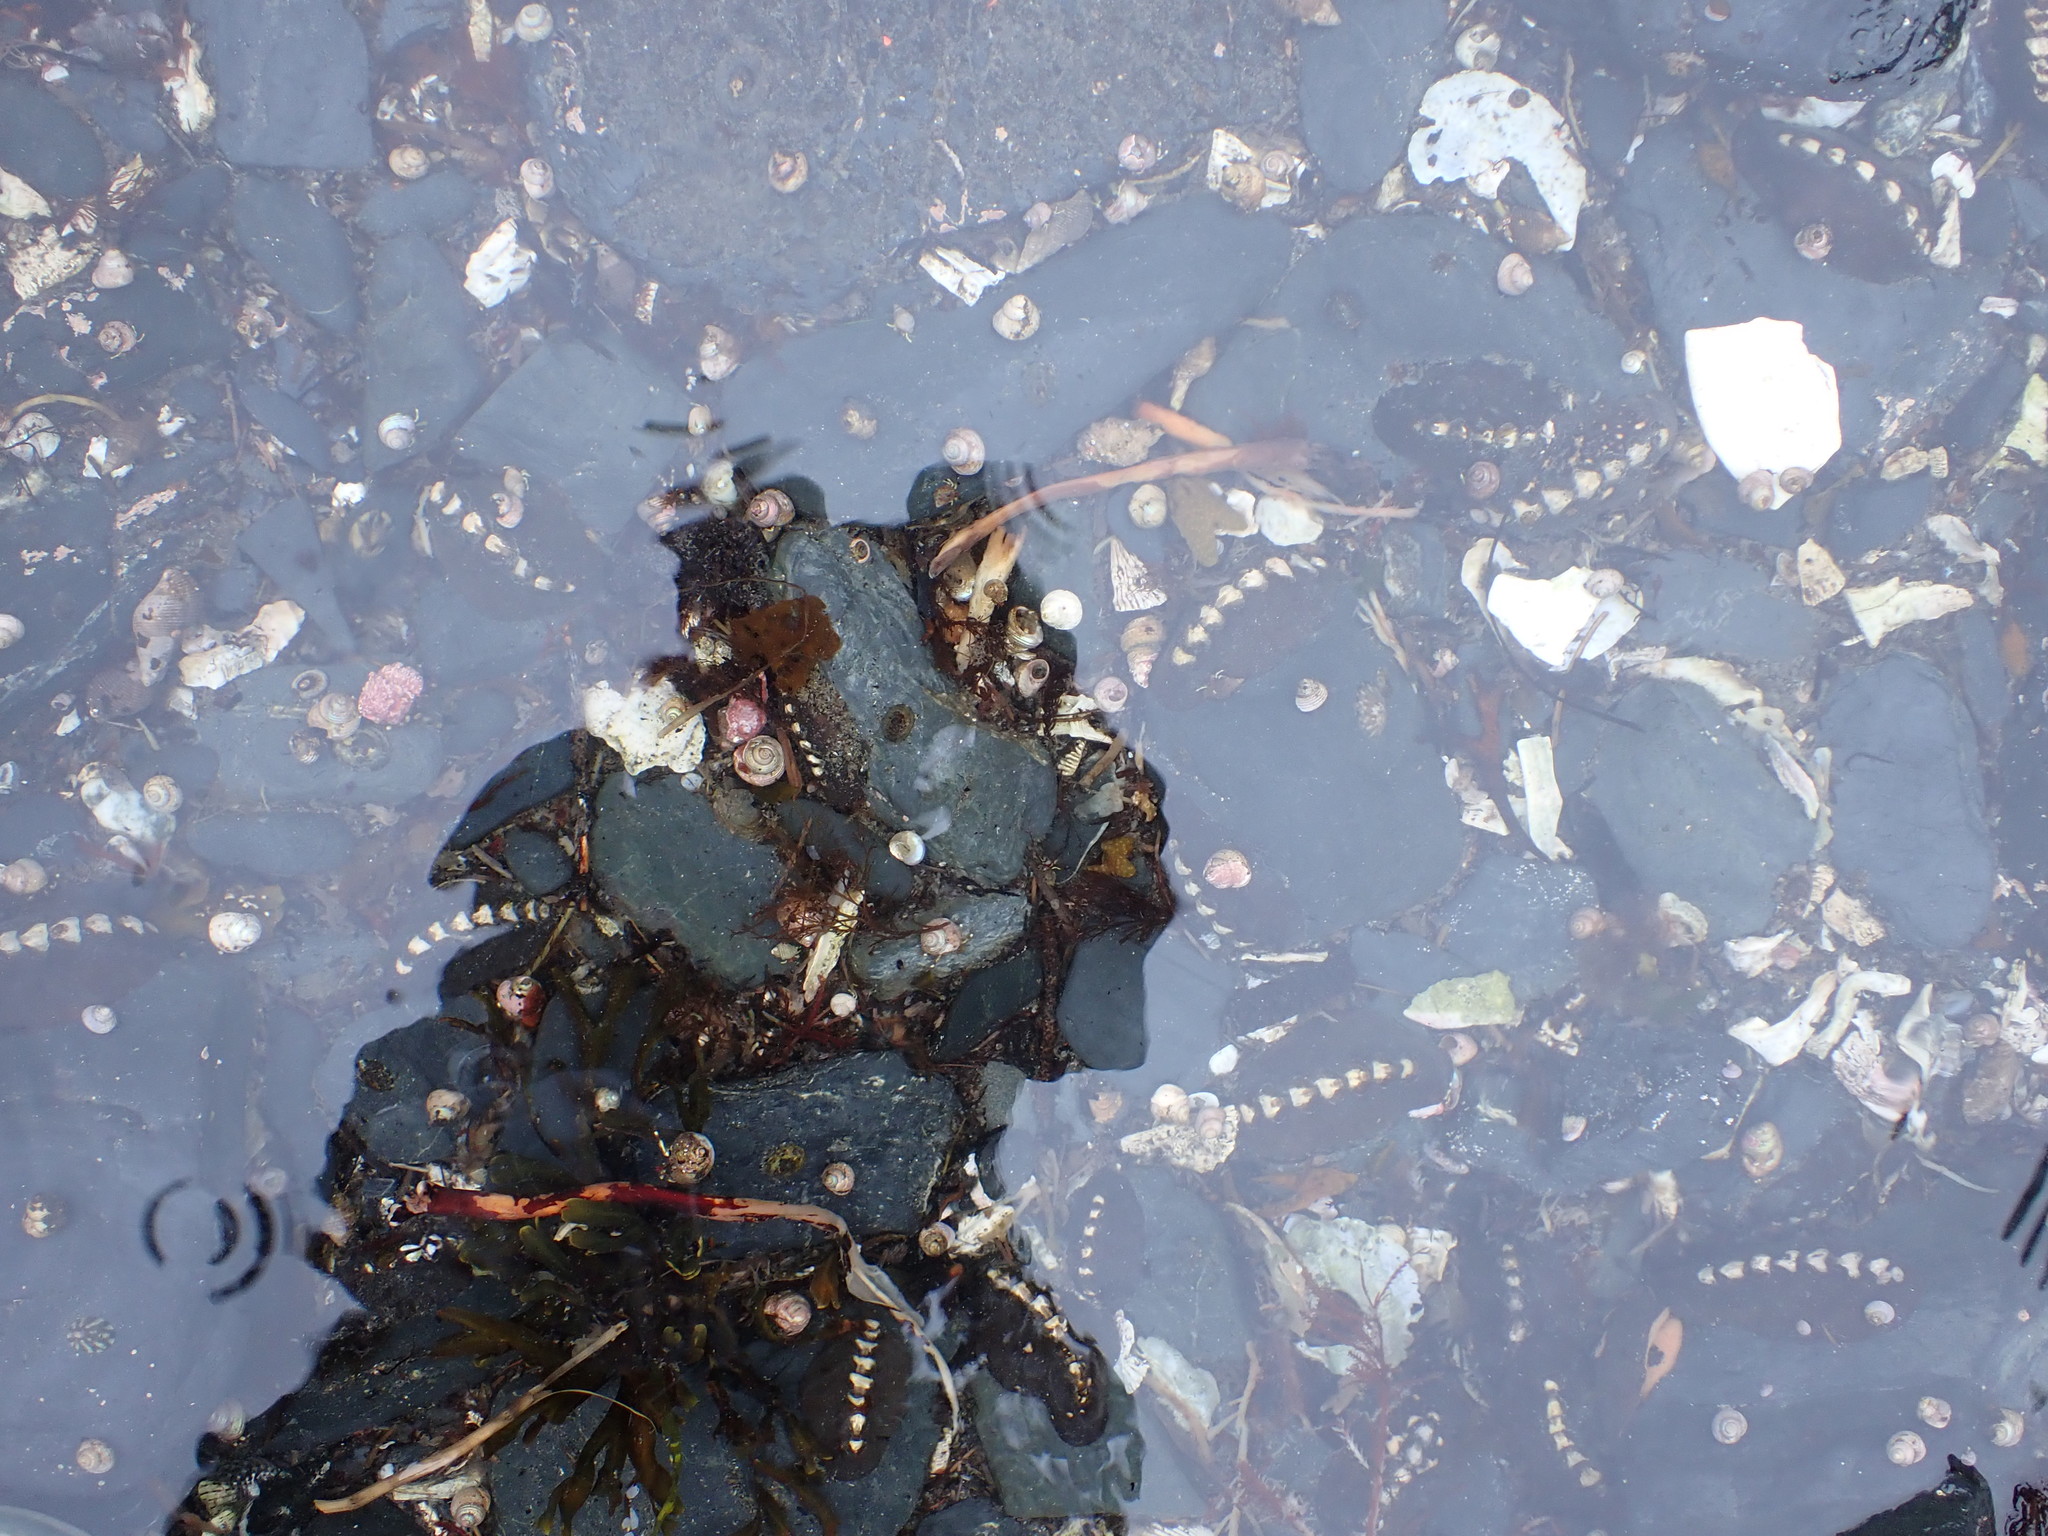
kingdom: Animalia
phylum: Mollusca
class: Polyplacophora
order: Chitonida
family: Mopaliidae
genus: Katharina
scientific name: Katharina tunicata
